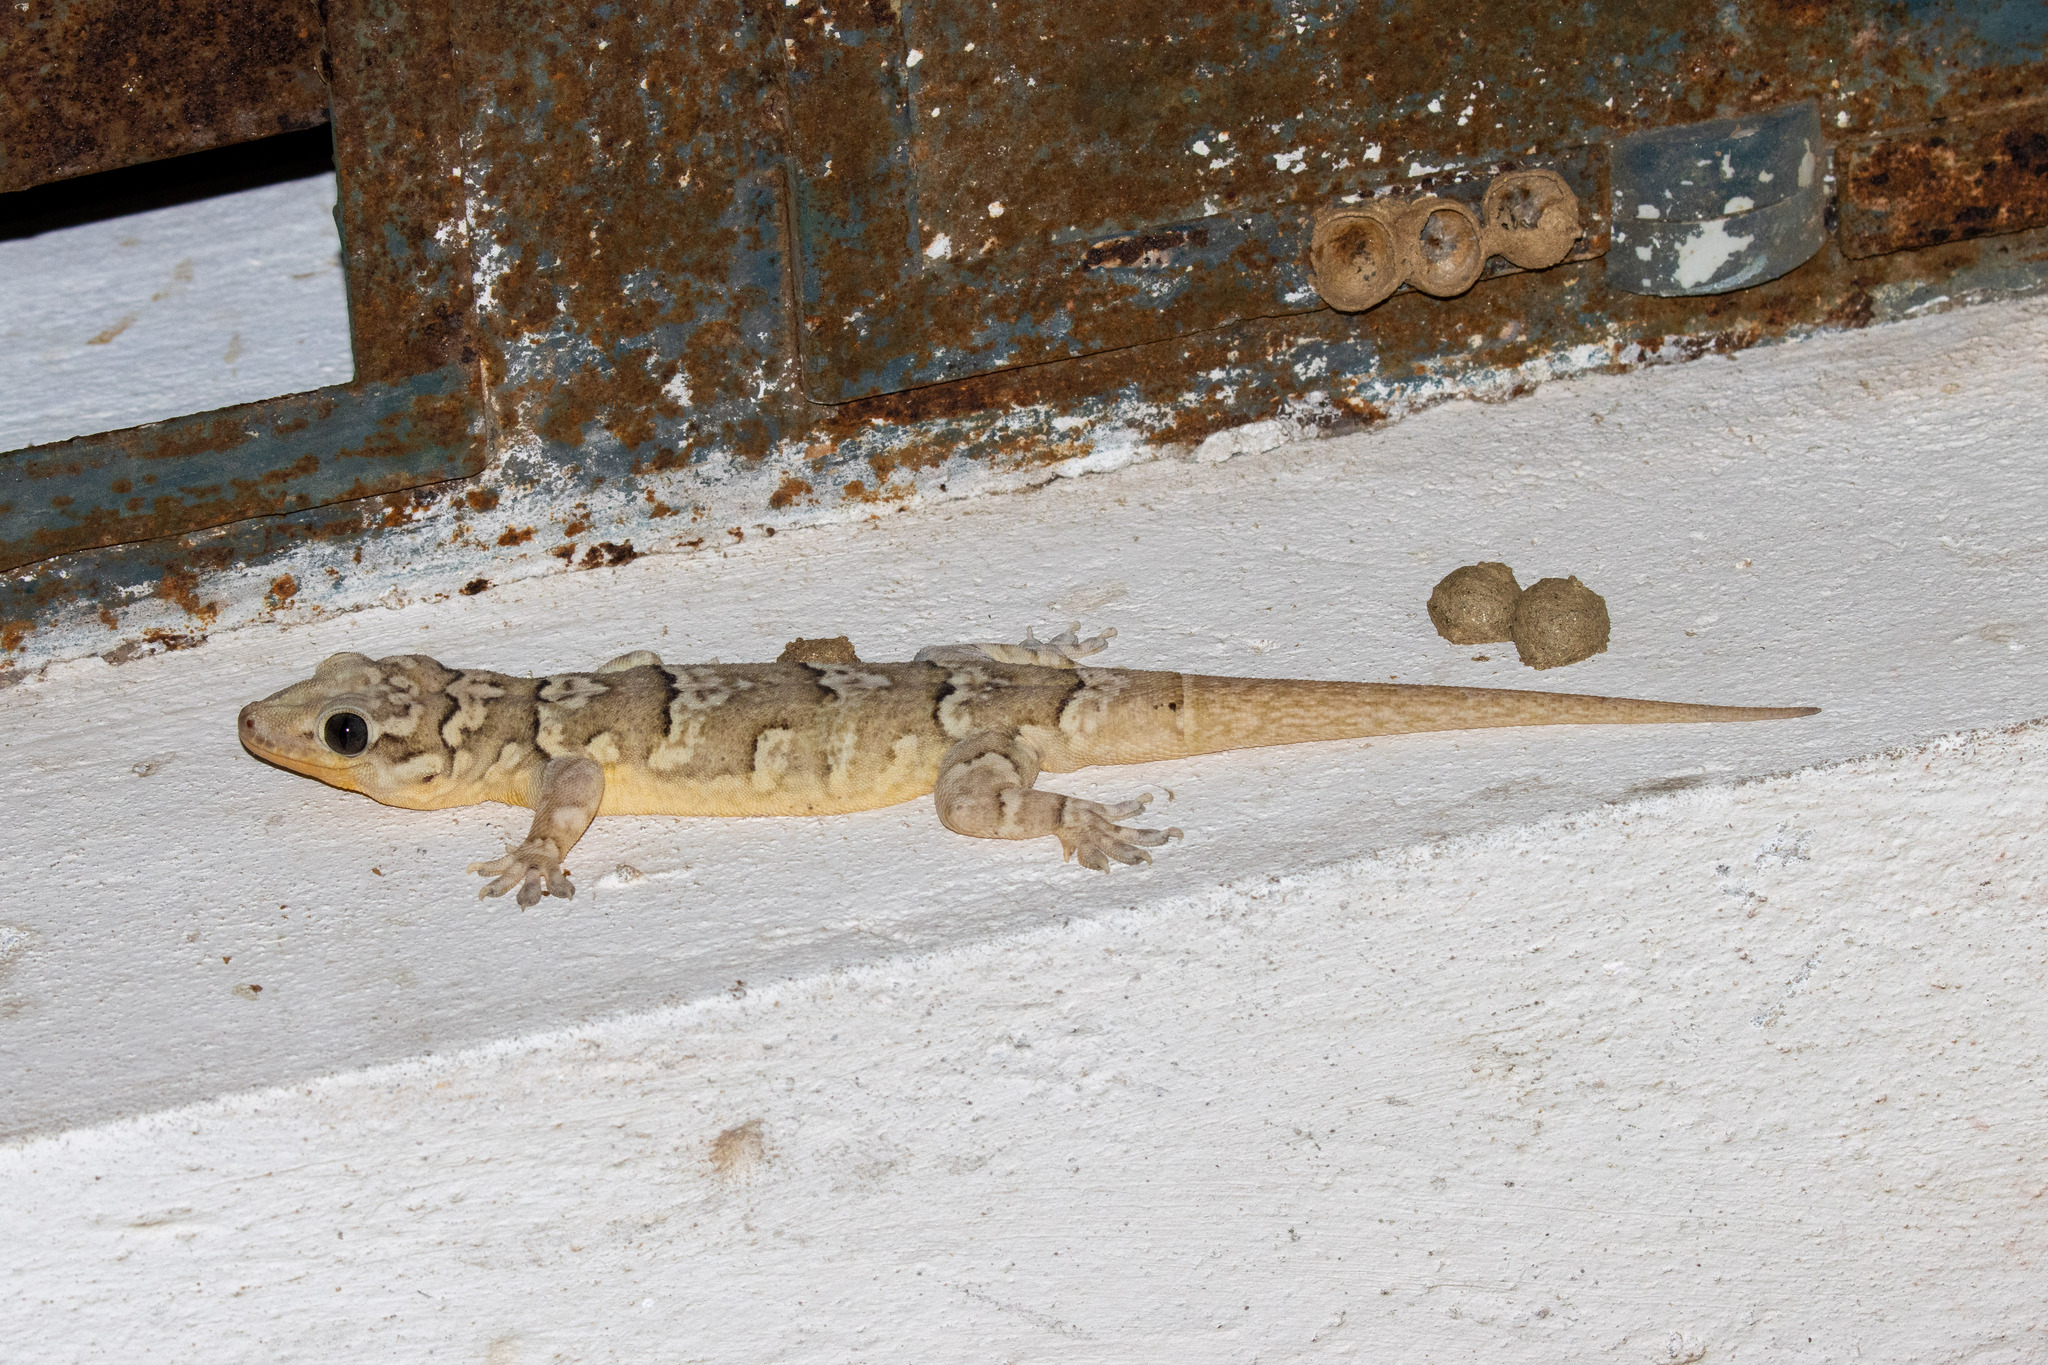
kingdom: Animalia
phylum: Chordata
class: Squamata
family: Phyllodactylidae
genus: Phyllopezus
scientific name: Phyllopezus periosus
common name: Peraiba gecko
